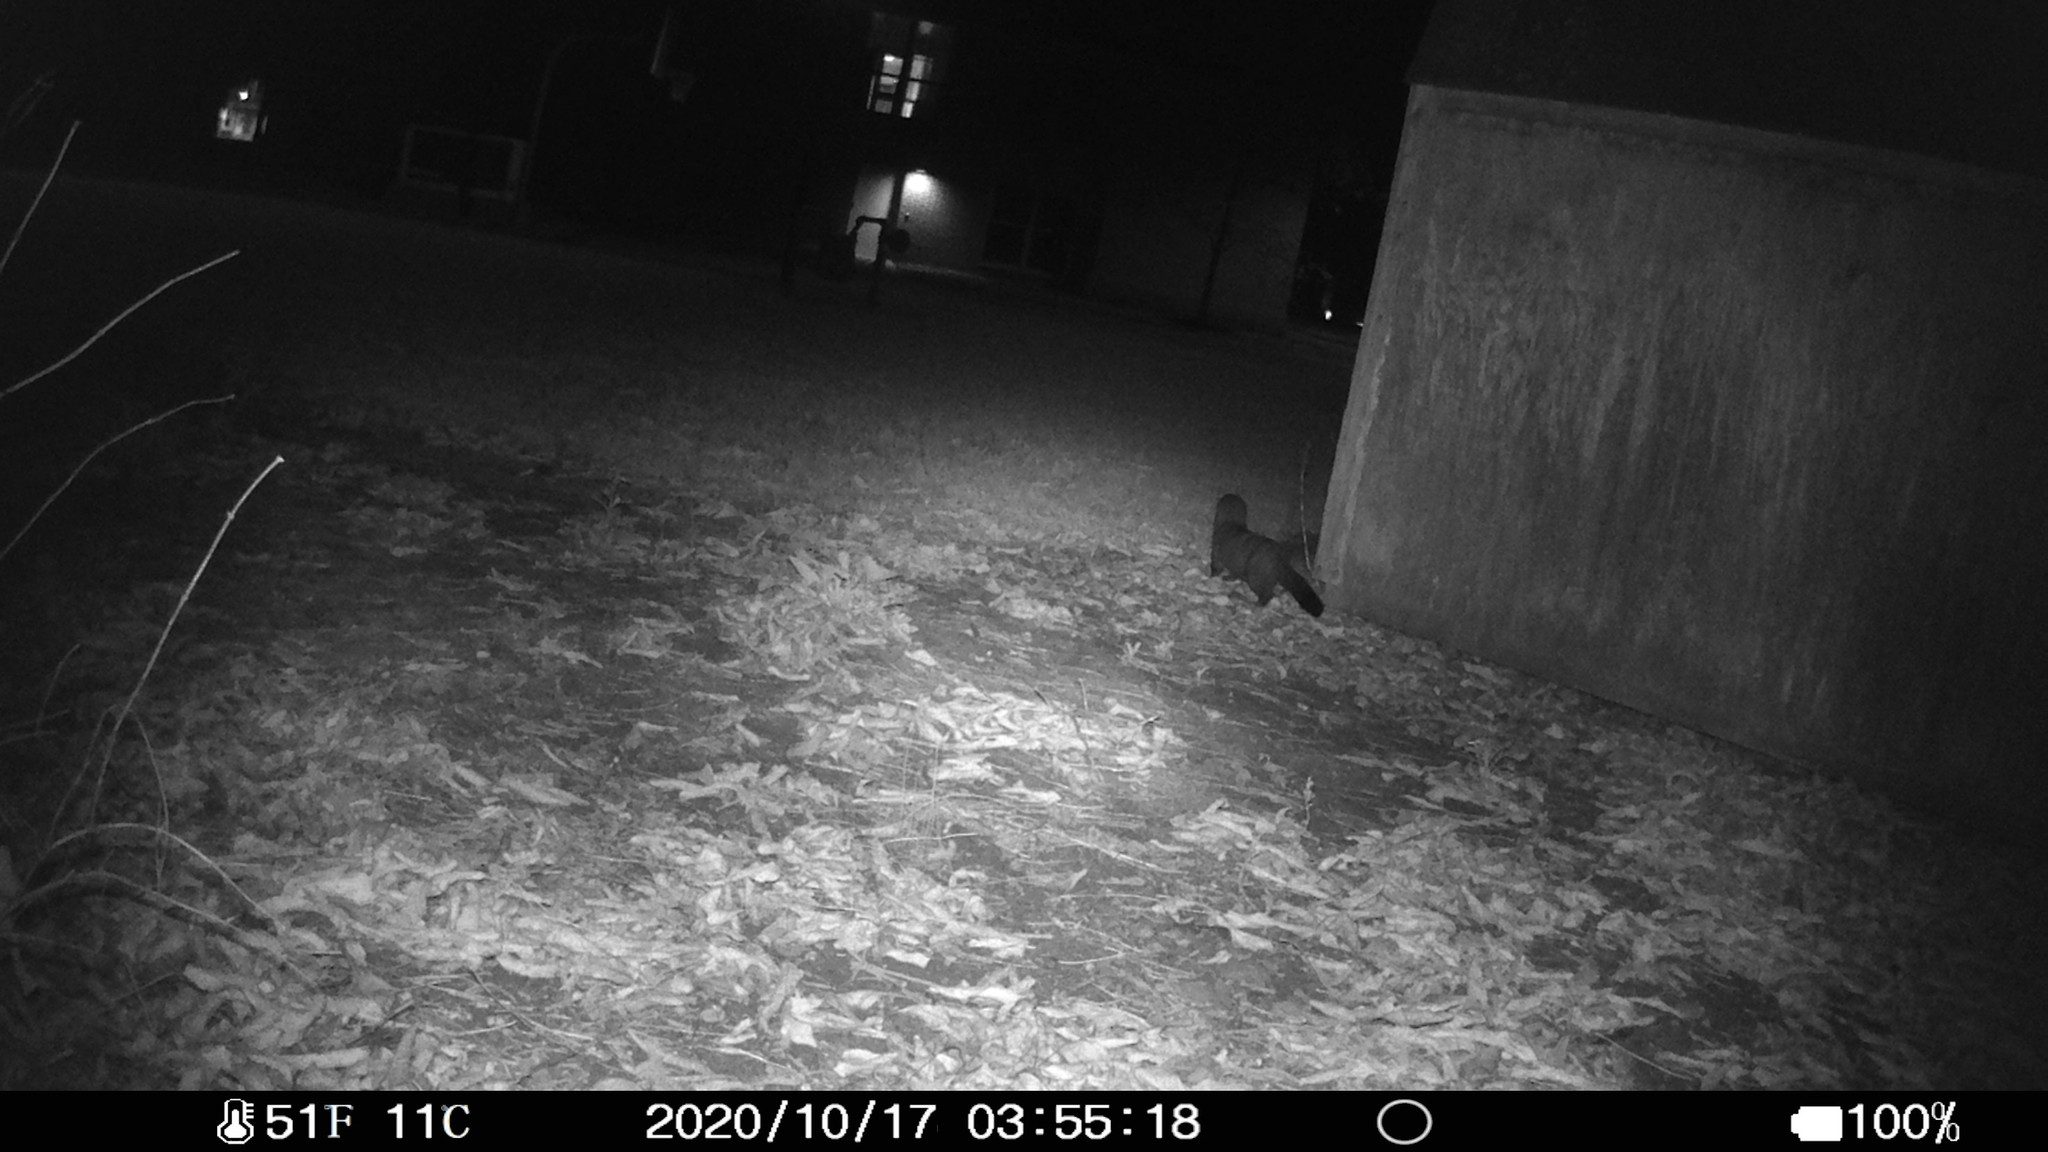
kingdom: Animalia
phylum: Chordata
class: Mammalia
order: Carnivora
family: Mustelidae
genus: Mustela
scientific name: Mustela
